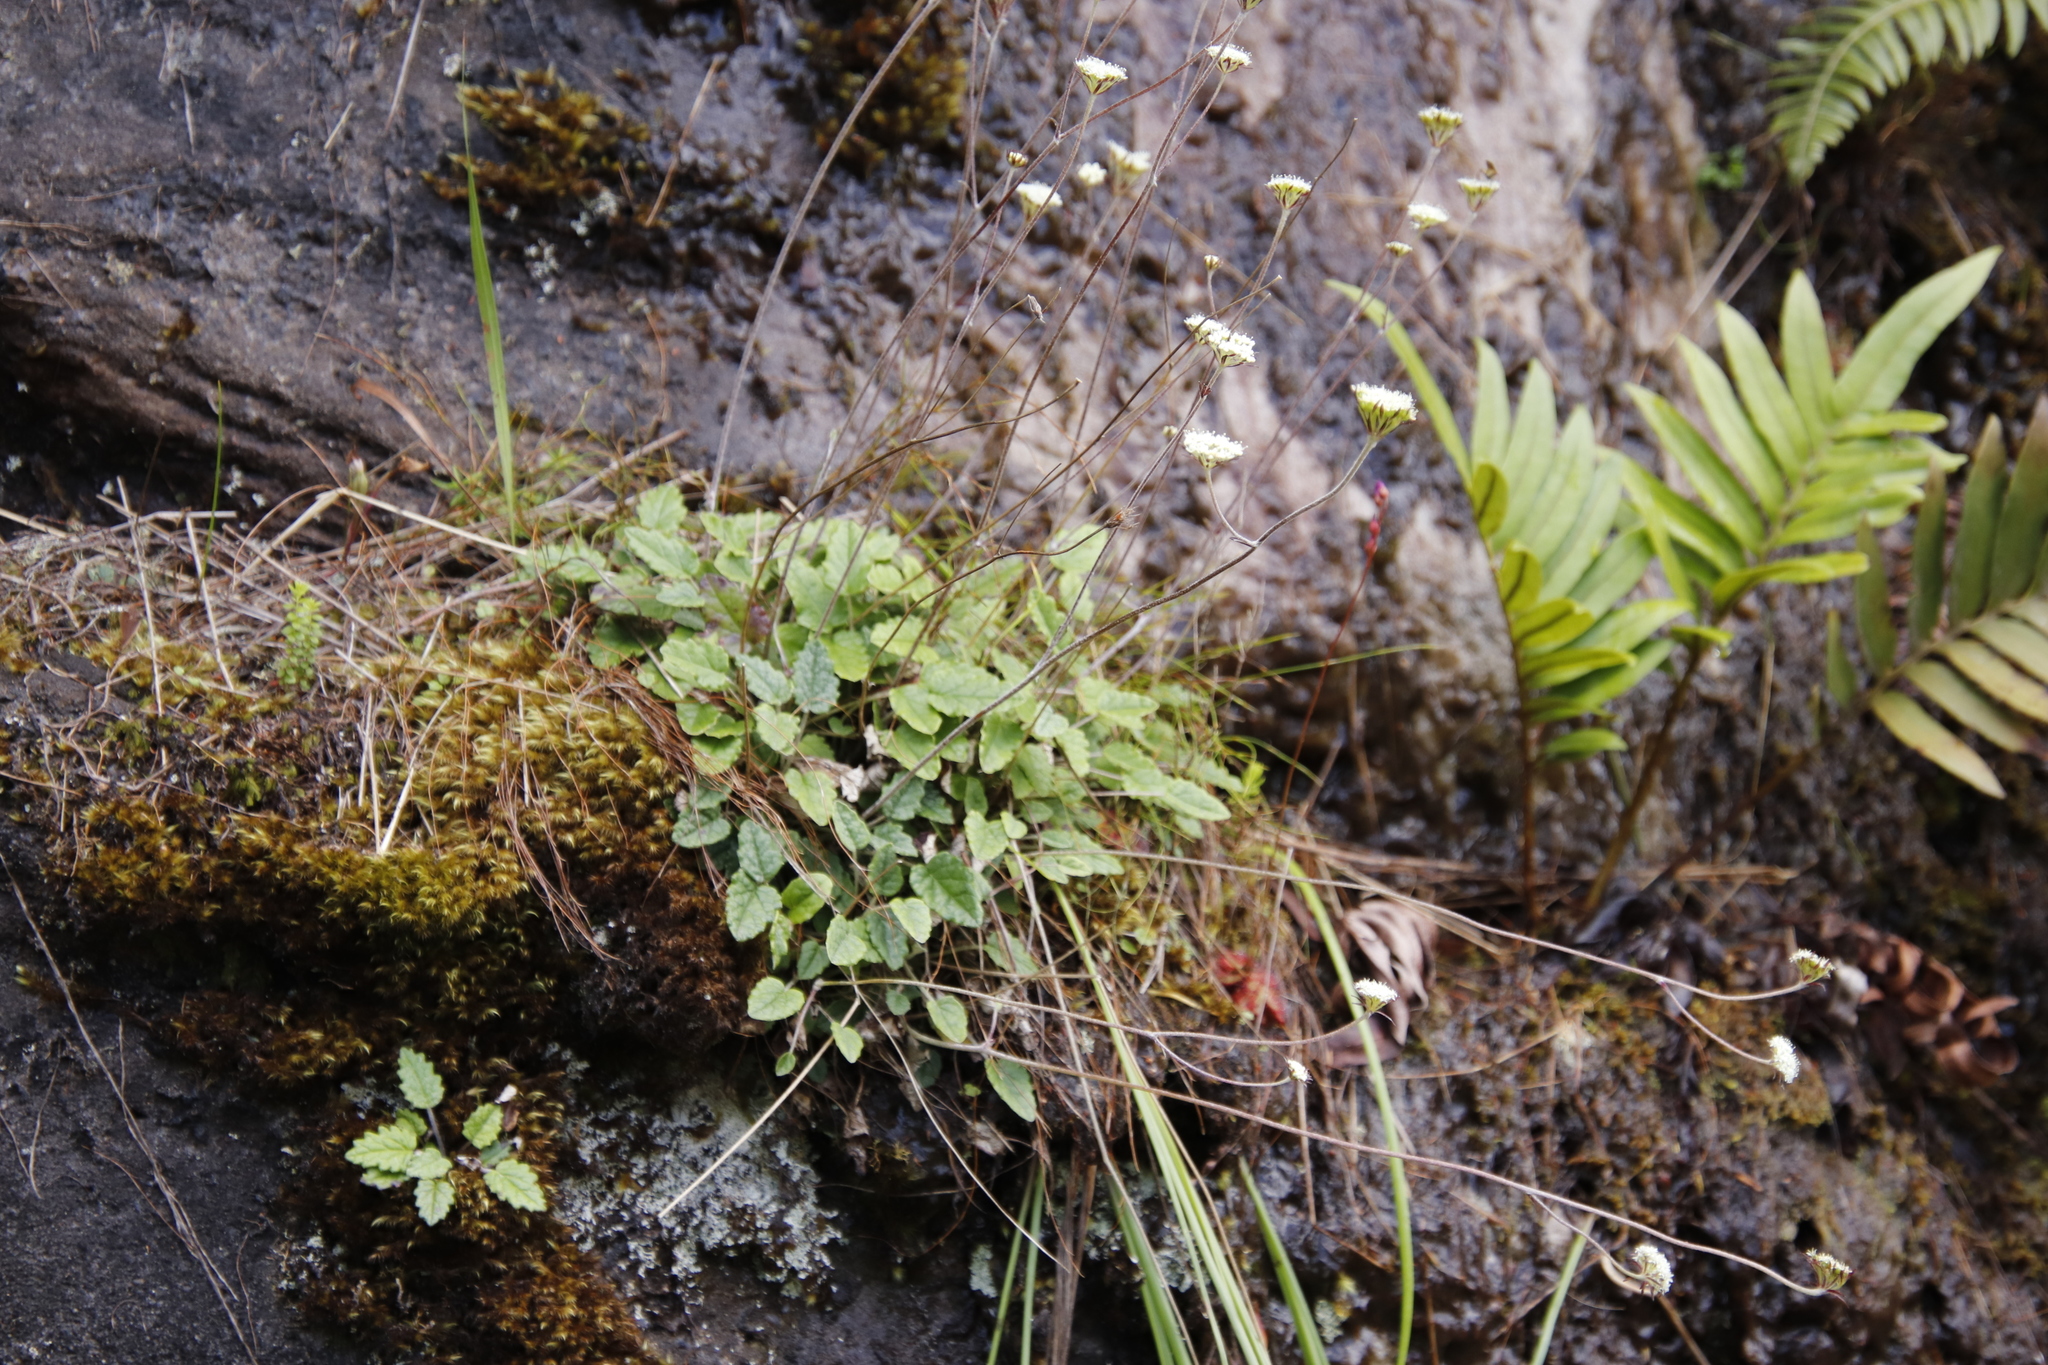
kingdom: Plantae
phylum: Tracheophyta
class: Magnoliopsida
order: Apiales
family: Apiaceae
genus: Hermas
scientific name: Hermas capitata
